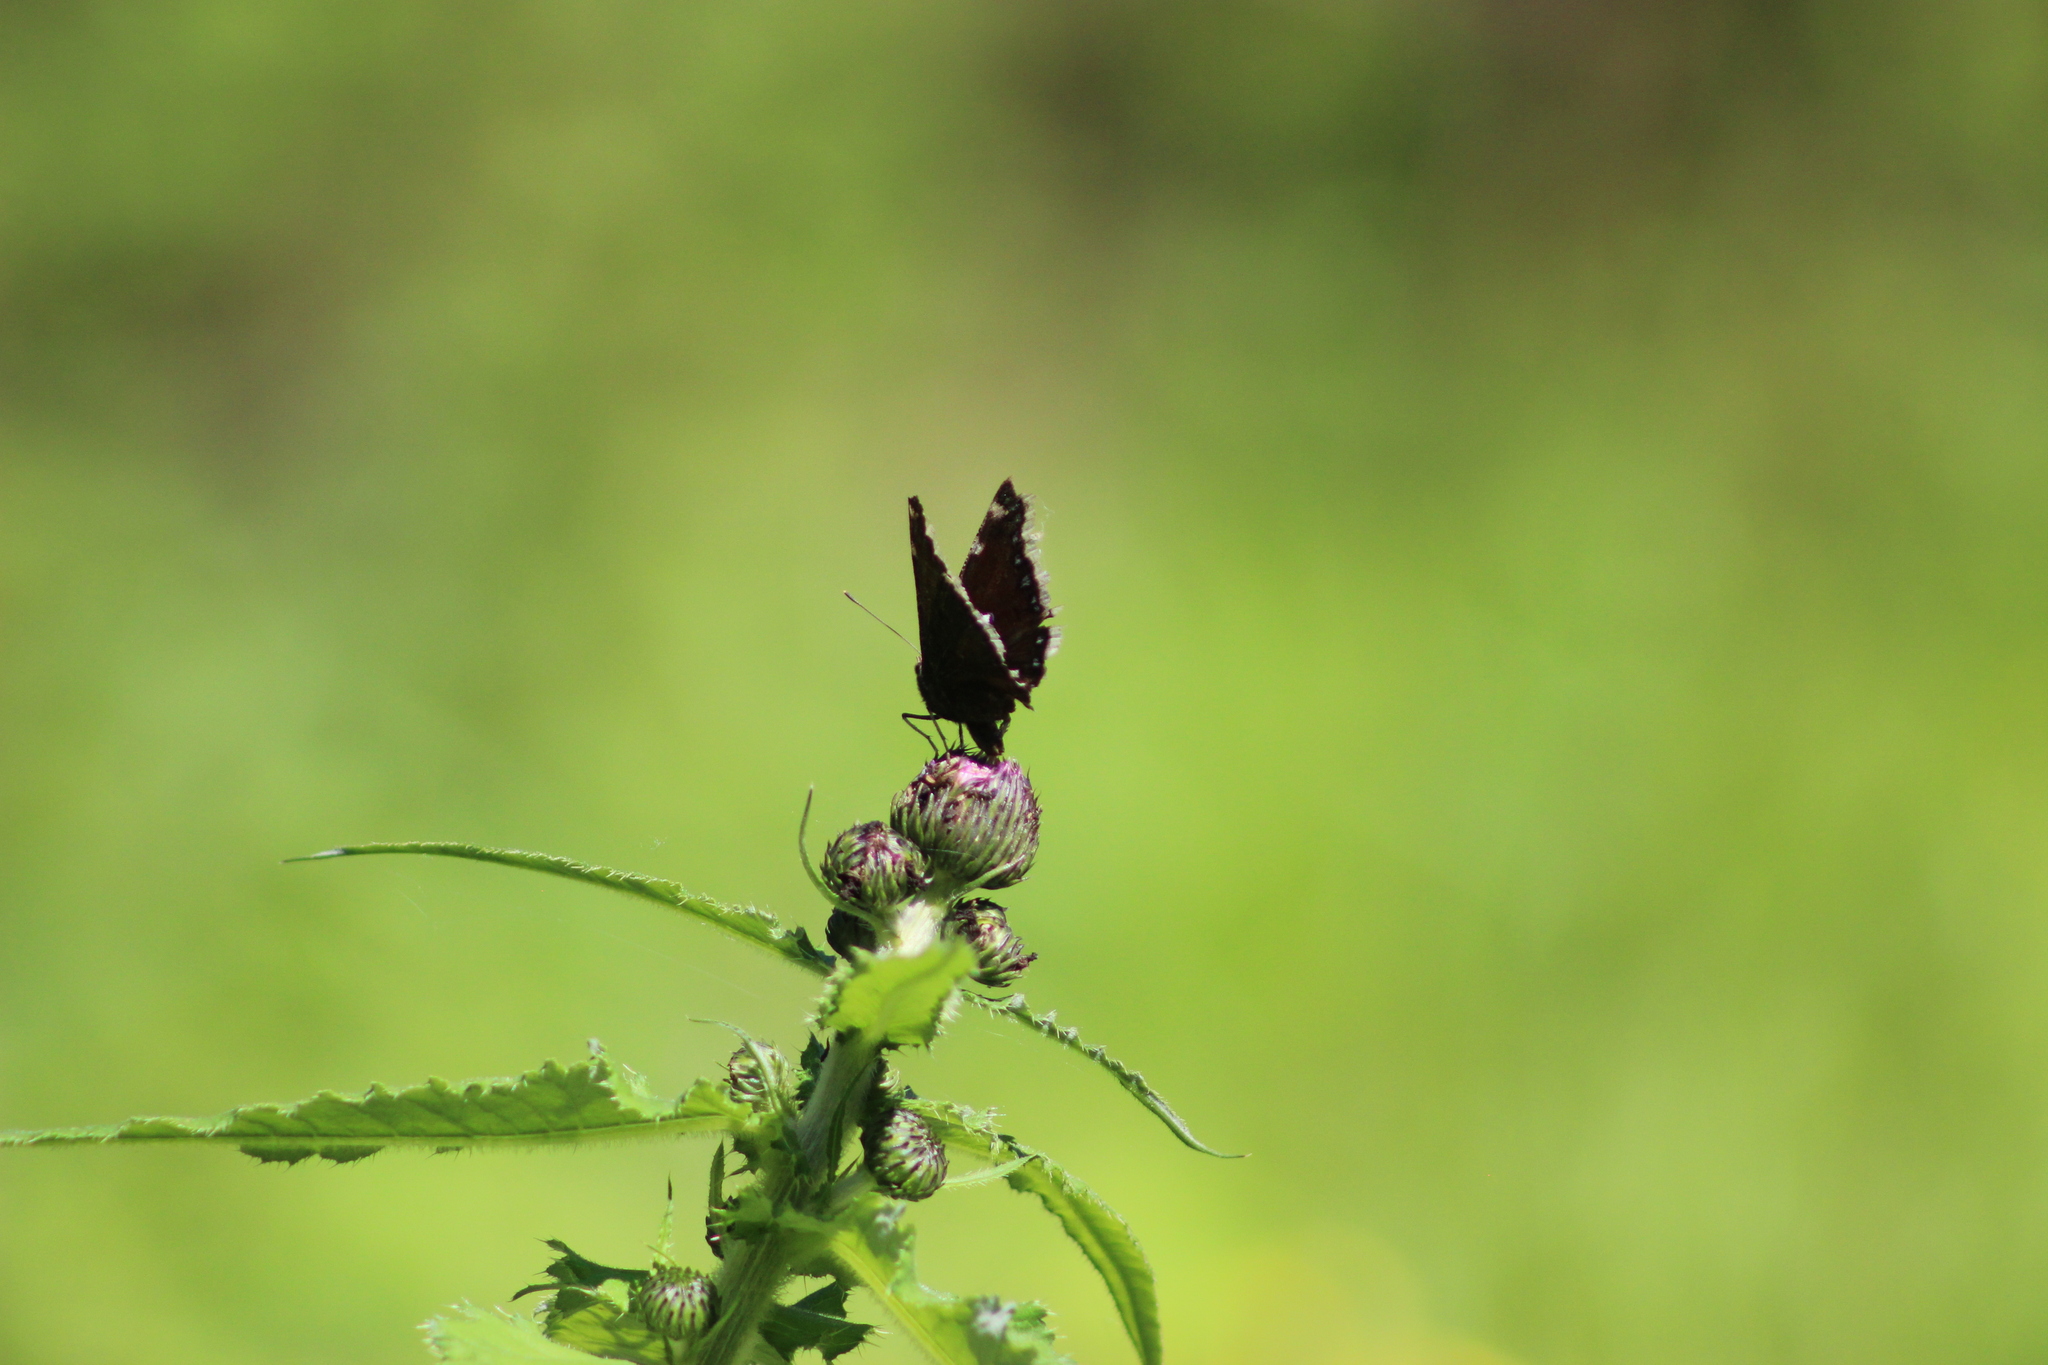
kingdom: Animalia
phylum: Arthropoda
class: Insecta
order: Lepidoptera
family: Nymphalidae
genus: Nymphalis
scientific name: Nymphalis antiopa
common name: Camberwell beauty
